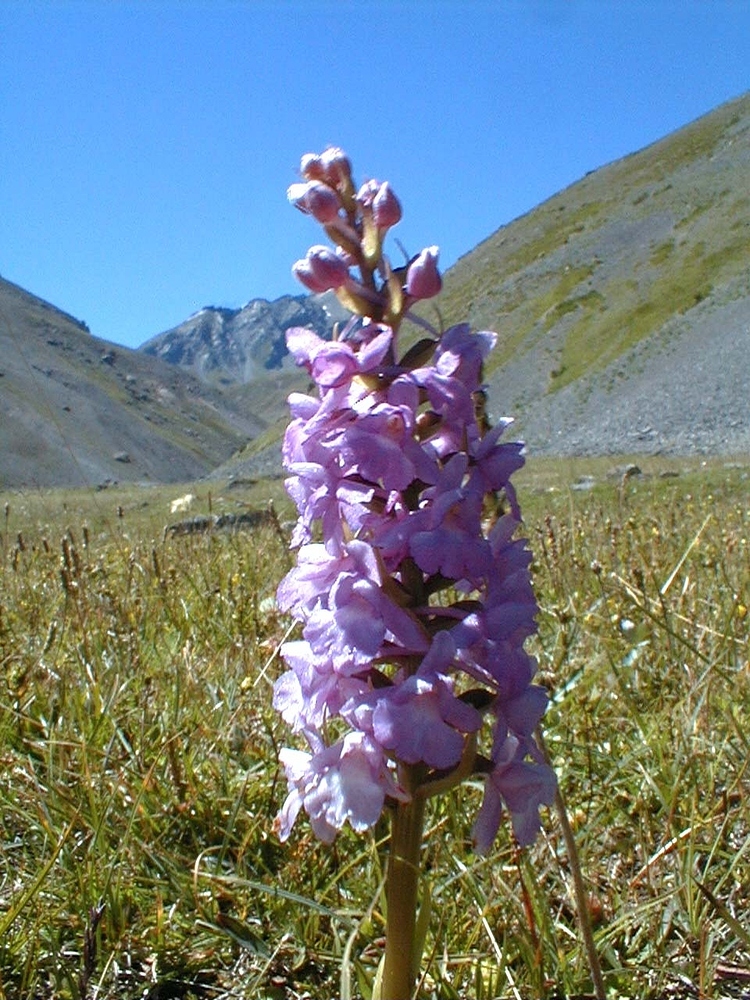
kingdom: Plantae
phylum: Tracheophyta
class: Liliopsida
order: Asparagales
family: Orchidaceae
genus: Gymnadenia
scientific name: Gymnadenia conopsea
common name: Fragrant orchid
